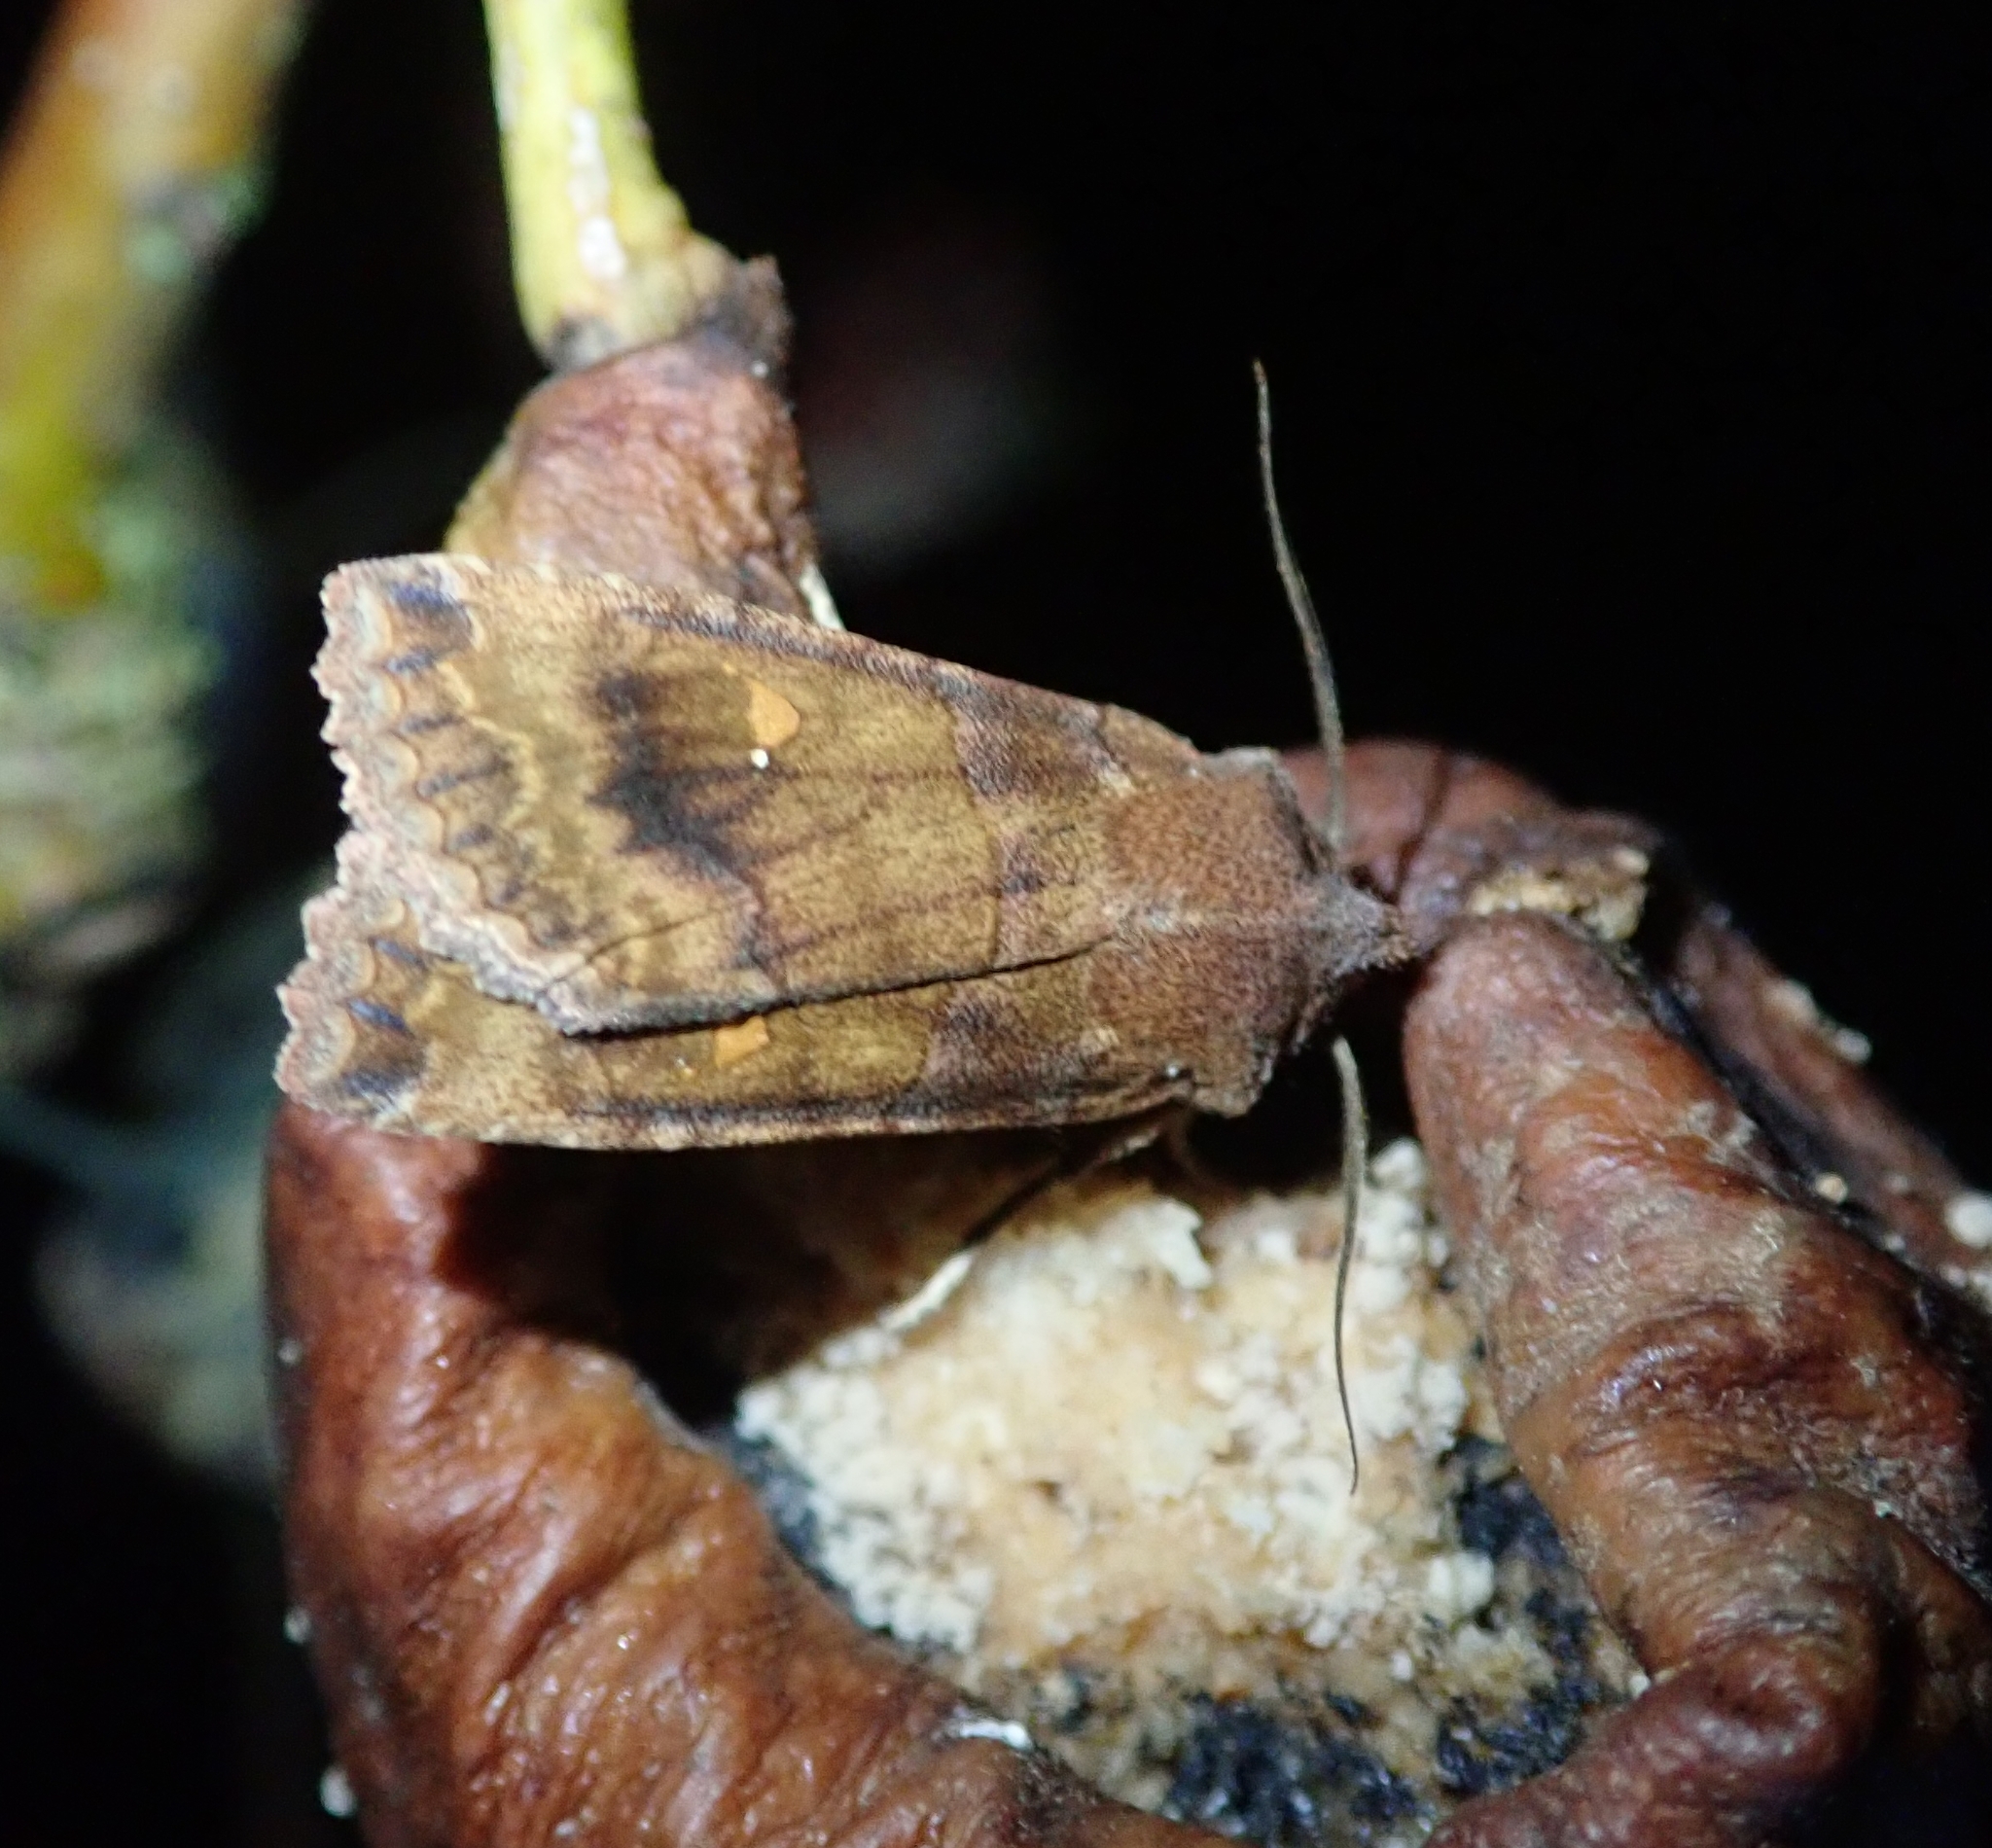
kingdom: Animalia
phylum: Arthropoda
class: Insecta
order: Lepidoptera
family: Noctuidae
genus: Eupsilia
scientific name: Eupsilia transversa
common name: Satellite
